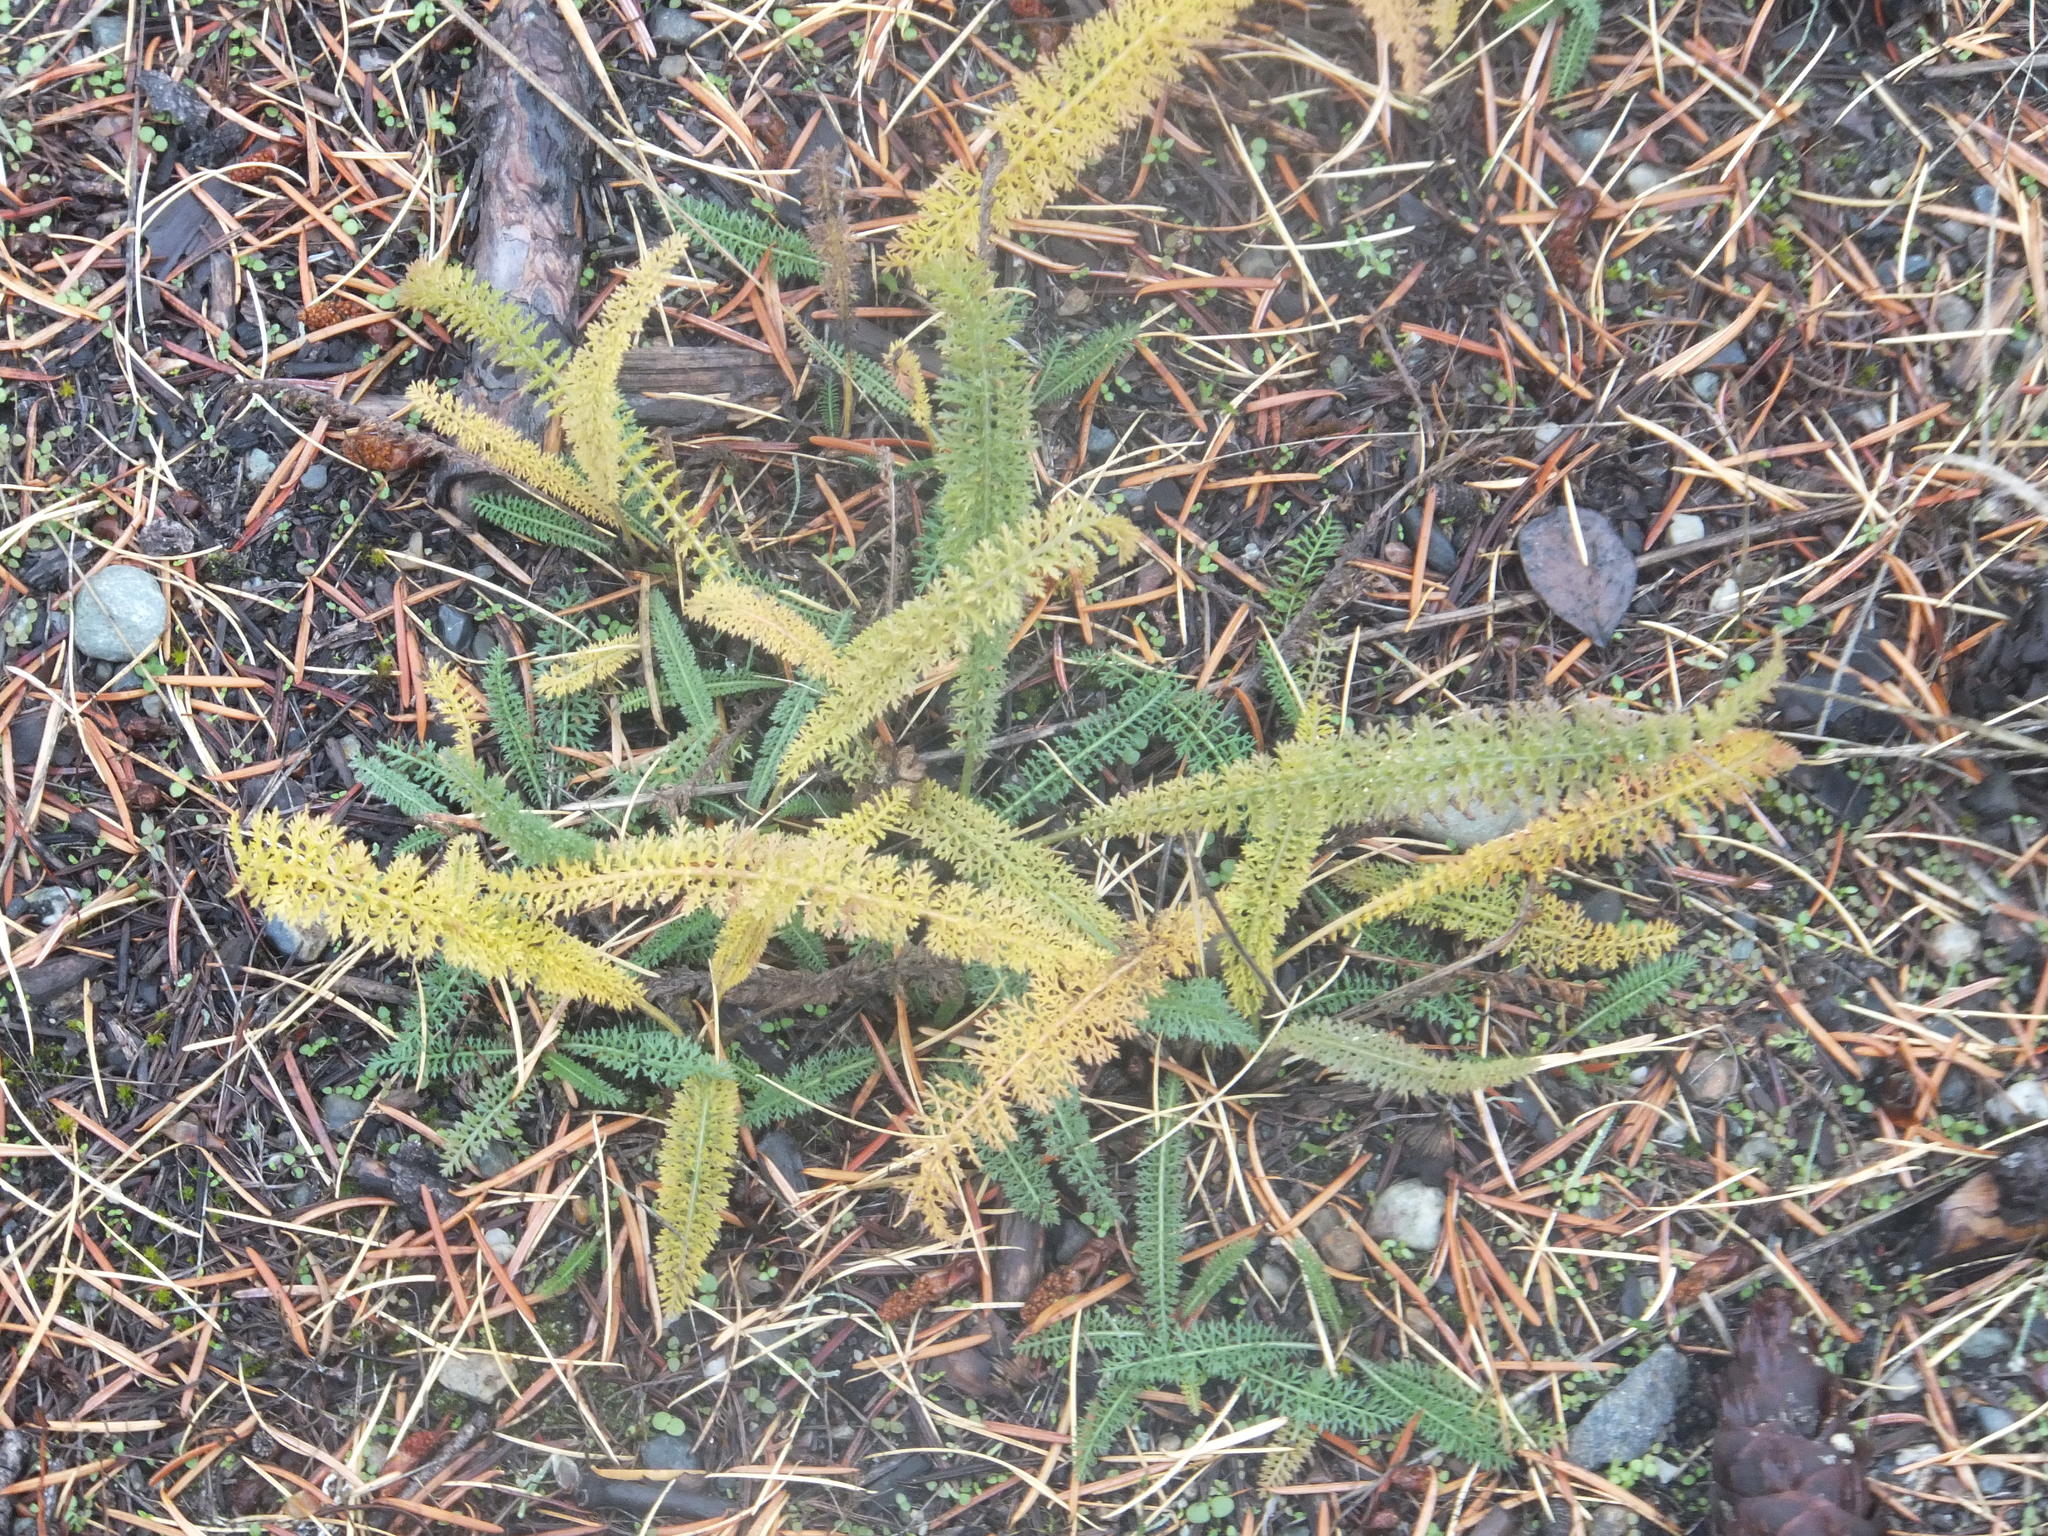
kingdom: Plantae
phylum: Tracheophyta
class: Magnoliopsida
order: Asterales
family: Asteraceae
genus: Achillea
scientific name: Achillea millefolium
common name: Yarrow
